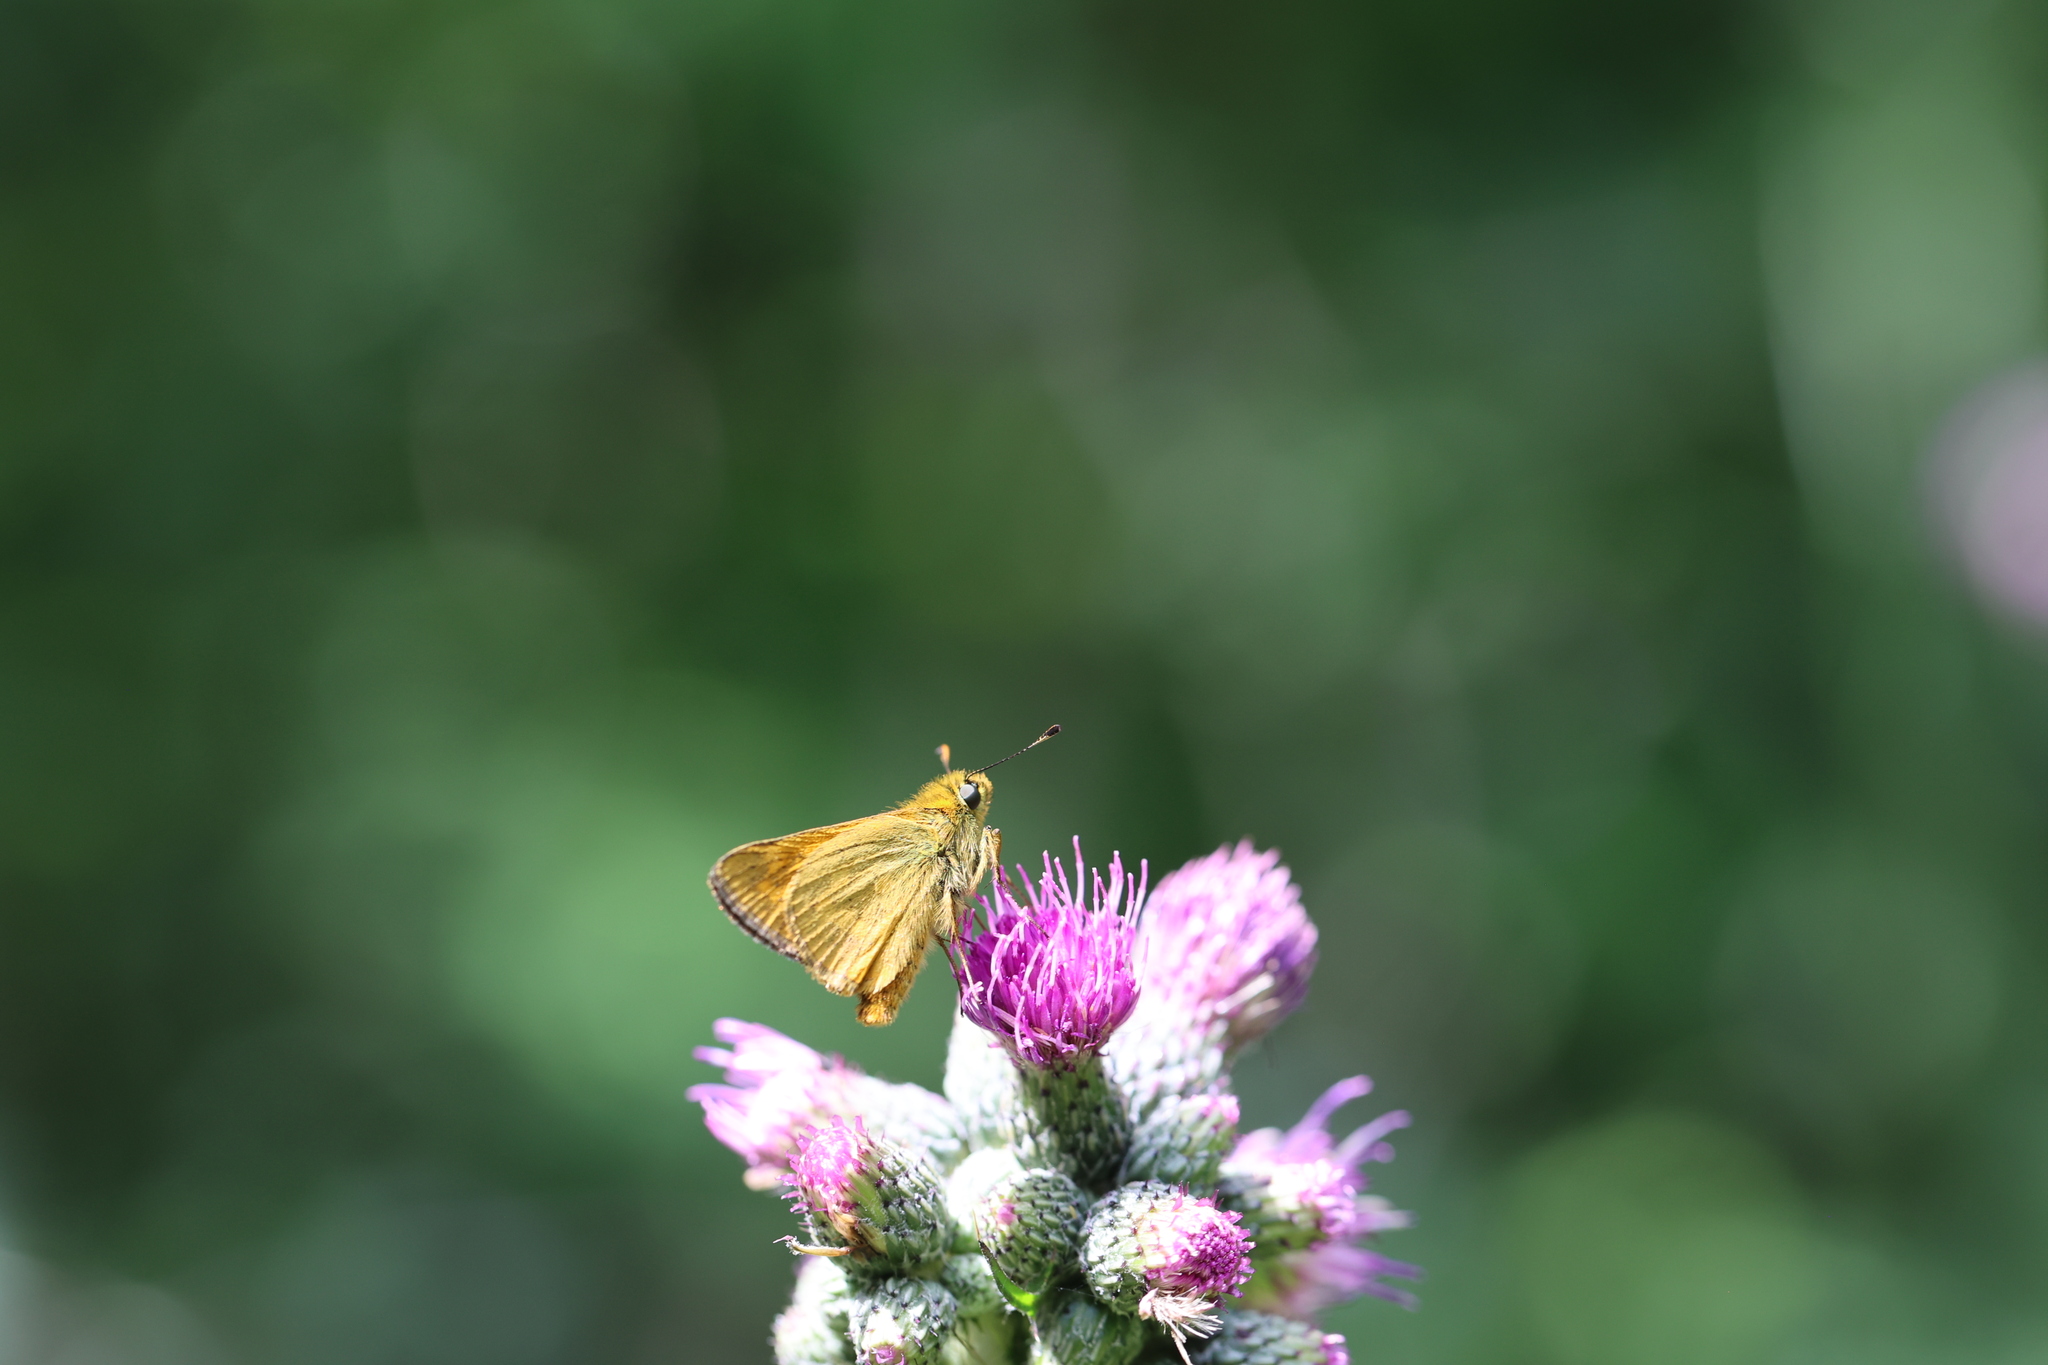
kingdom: Animalia
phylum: Arthropoda
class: Insecta
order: Lepidoptera
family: Hesperiidae
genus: Ochlodes
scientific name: Ochlodes venata
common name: Large skipper
